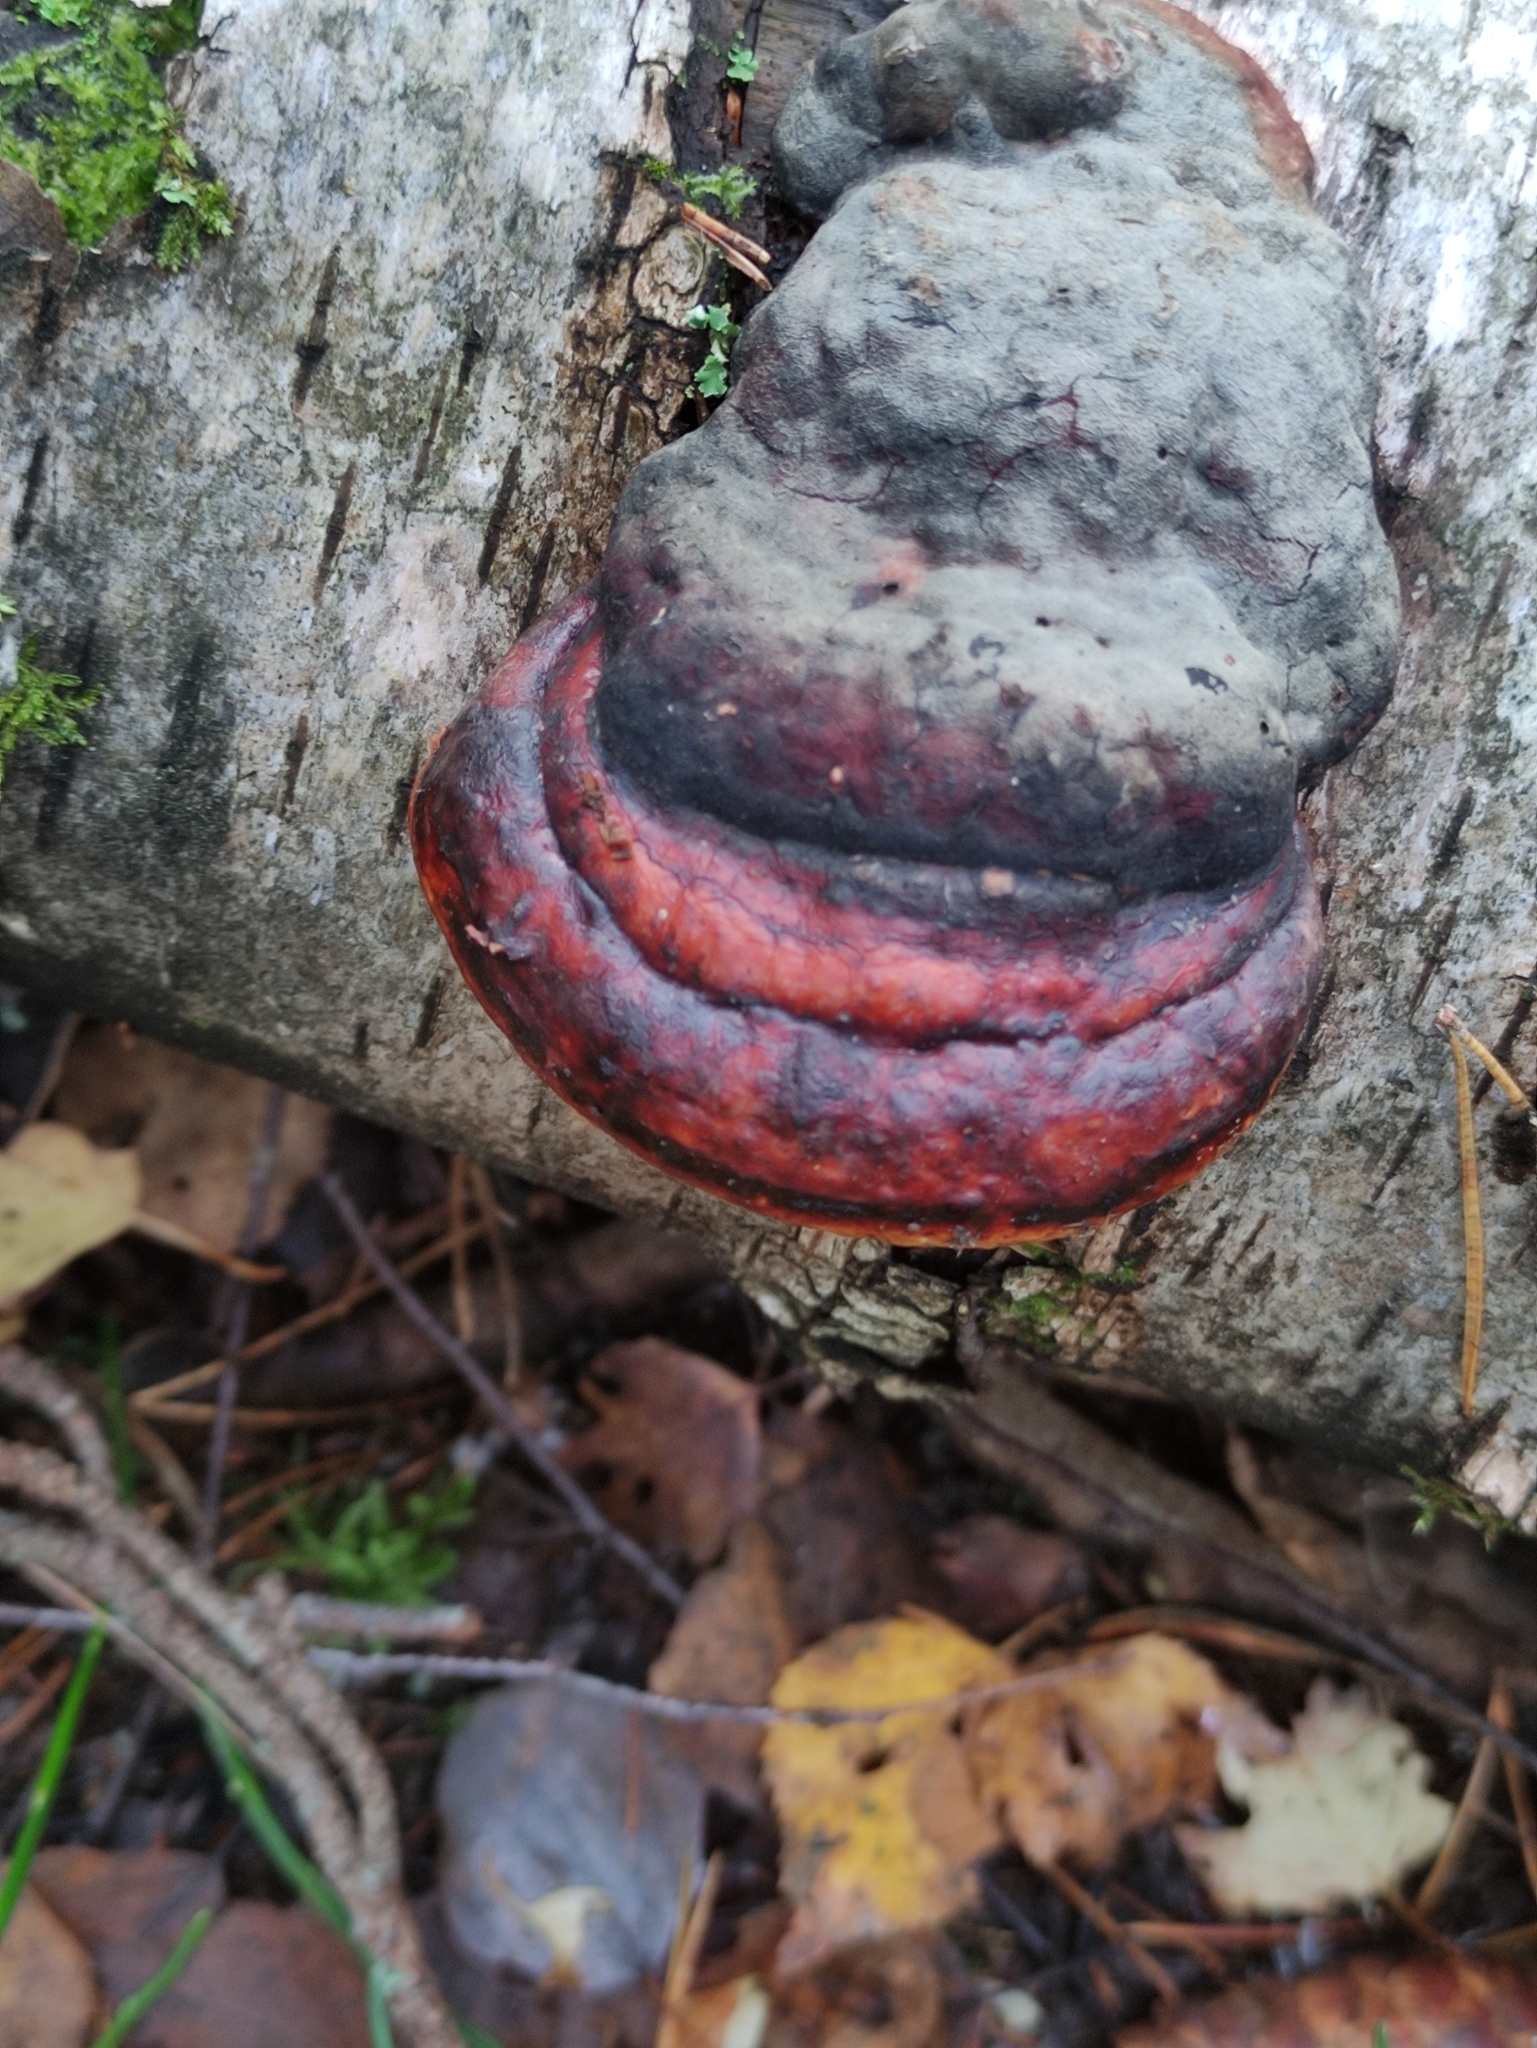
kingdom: Fungi
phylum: Basidiomycota
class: Agaricomycetes
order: Polyporales
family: Fomitopsidaceae
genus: Fomitopsis
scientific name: Fomitopsis pinicola
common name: Red-belted bracket
